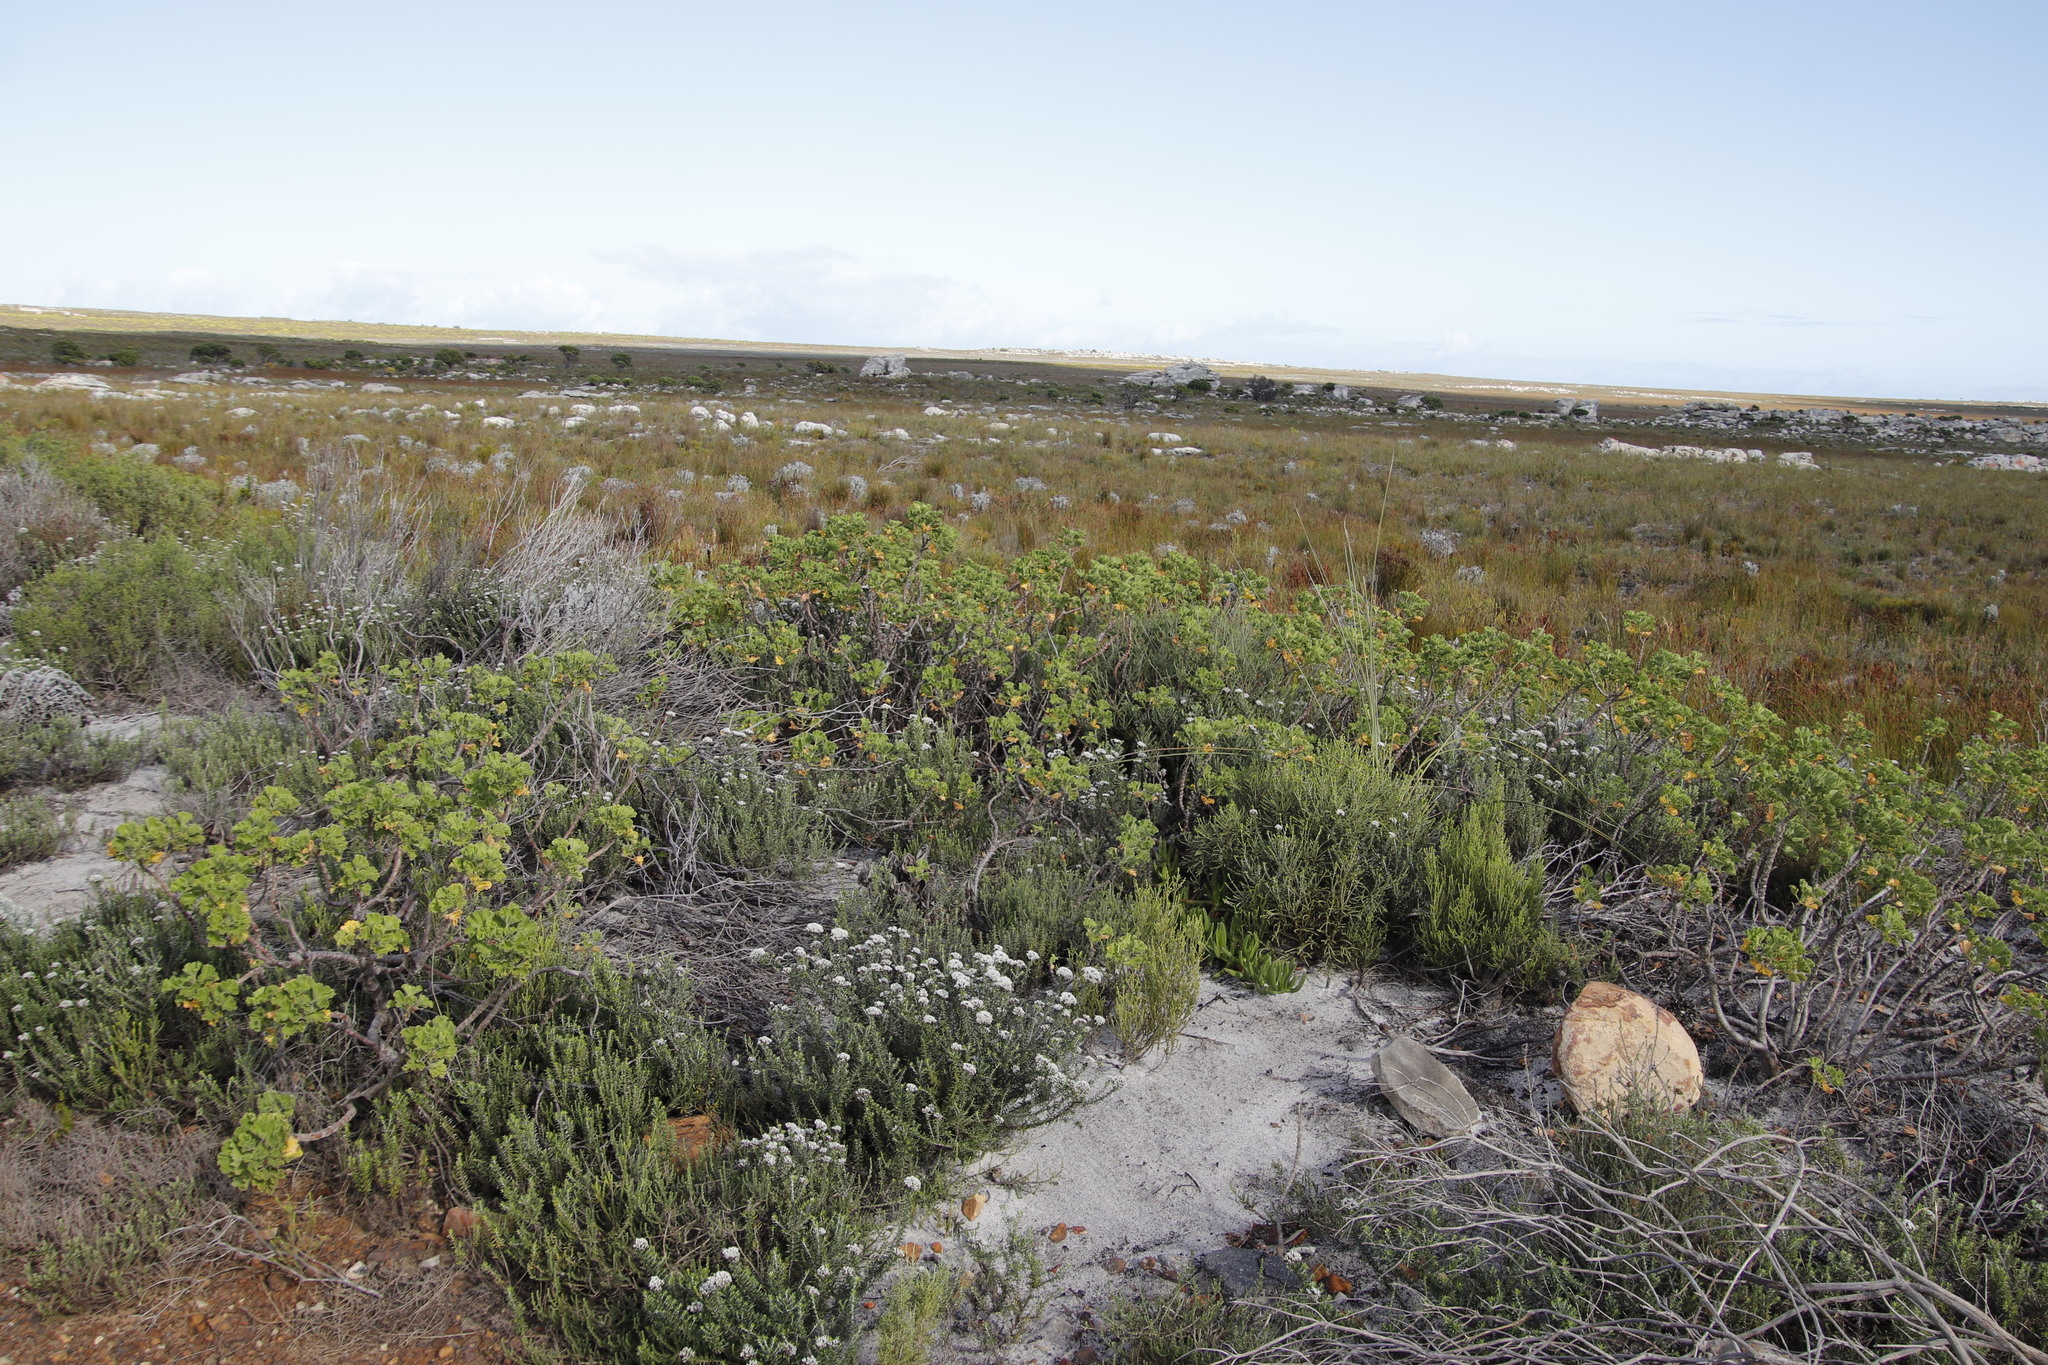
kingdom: Plantae
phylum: Tracheophyta
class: Magnoliopsida
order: Geraniales
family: Geraniaceae
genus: Pelargonium
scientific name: Pelargonium cucullatum
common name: Tree pelargonium
